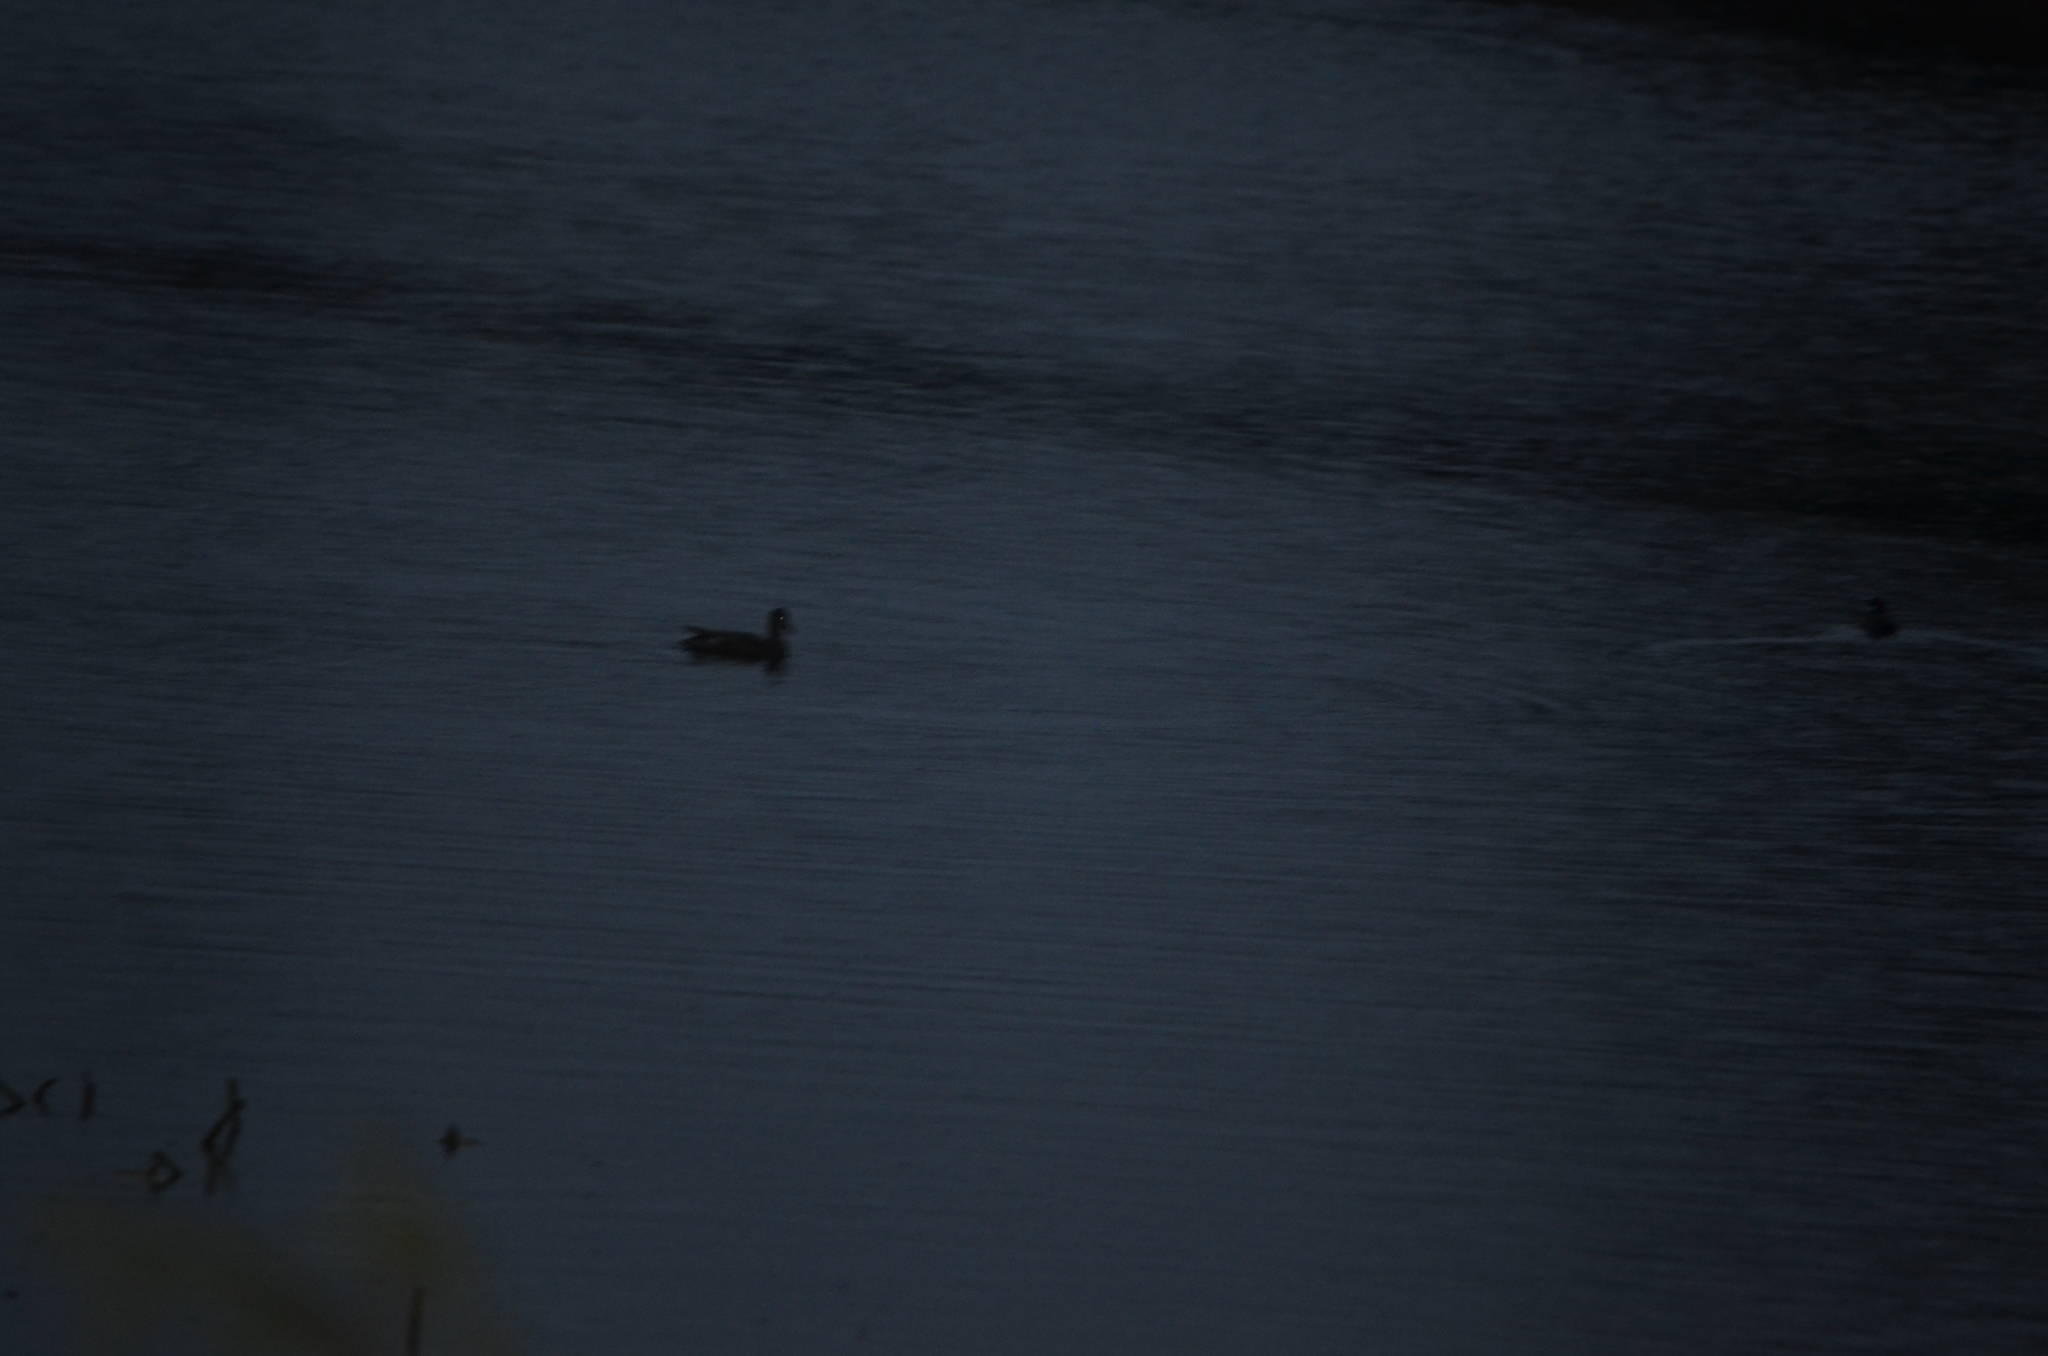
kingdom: Animalia
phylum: Chordata
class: Aves
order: Anseriformes
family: Anatidae
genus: Mareca
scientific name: Mareca strepera
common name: Gadwall
